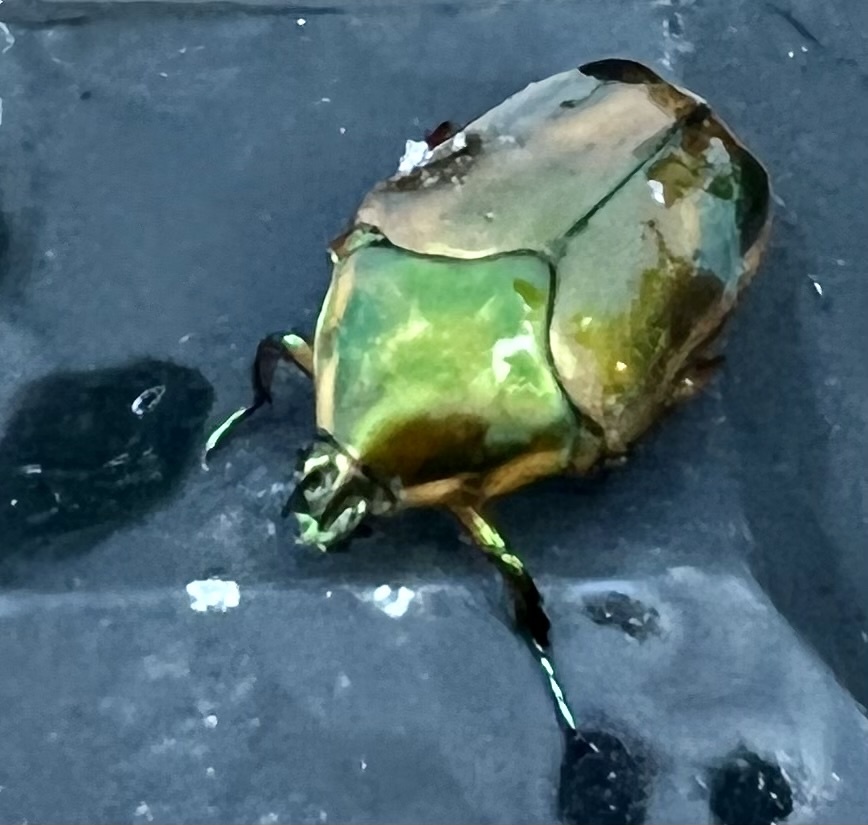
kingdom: Animalia
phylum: Arthropoda
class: Insecta
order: Coleoptera
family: Scarabaeidae
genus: Cotinis
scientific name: Cotinis nitida
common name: Common green june beetle
